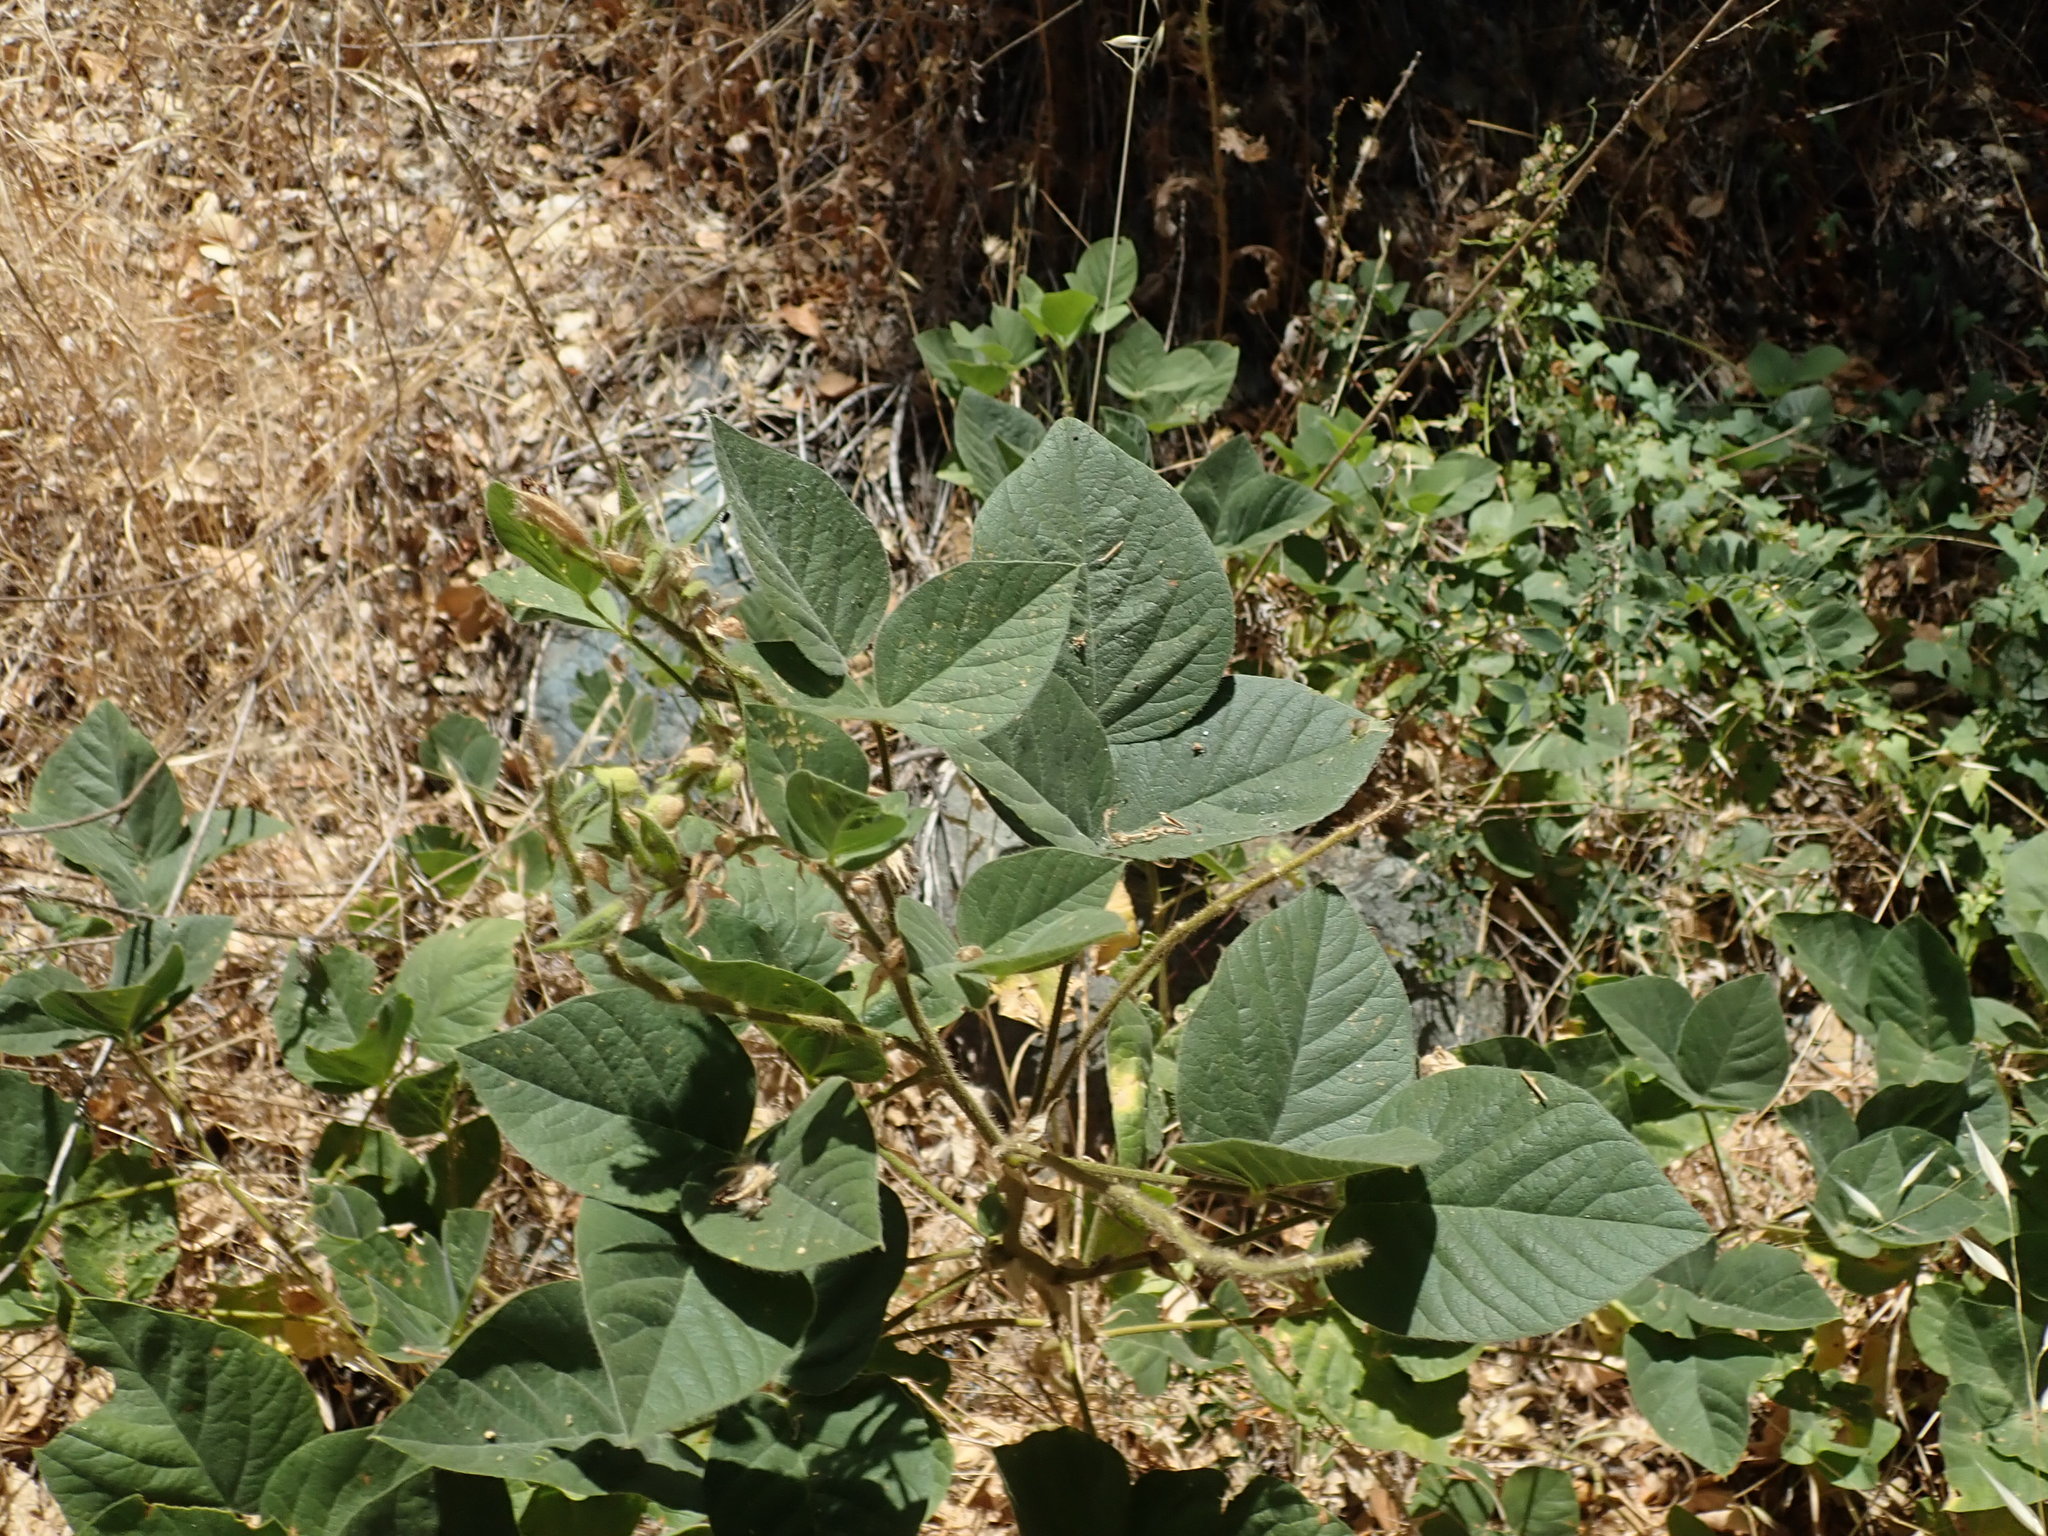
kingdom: Plantae
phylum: Tracheophyta
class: Magnoliopsida
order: Fabales
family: Fabaceae
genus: Hoita
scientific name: Hoita strobilina
